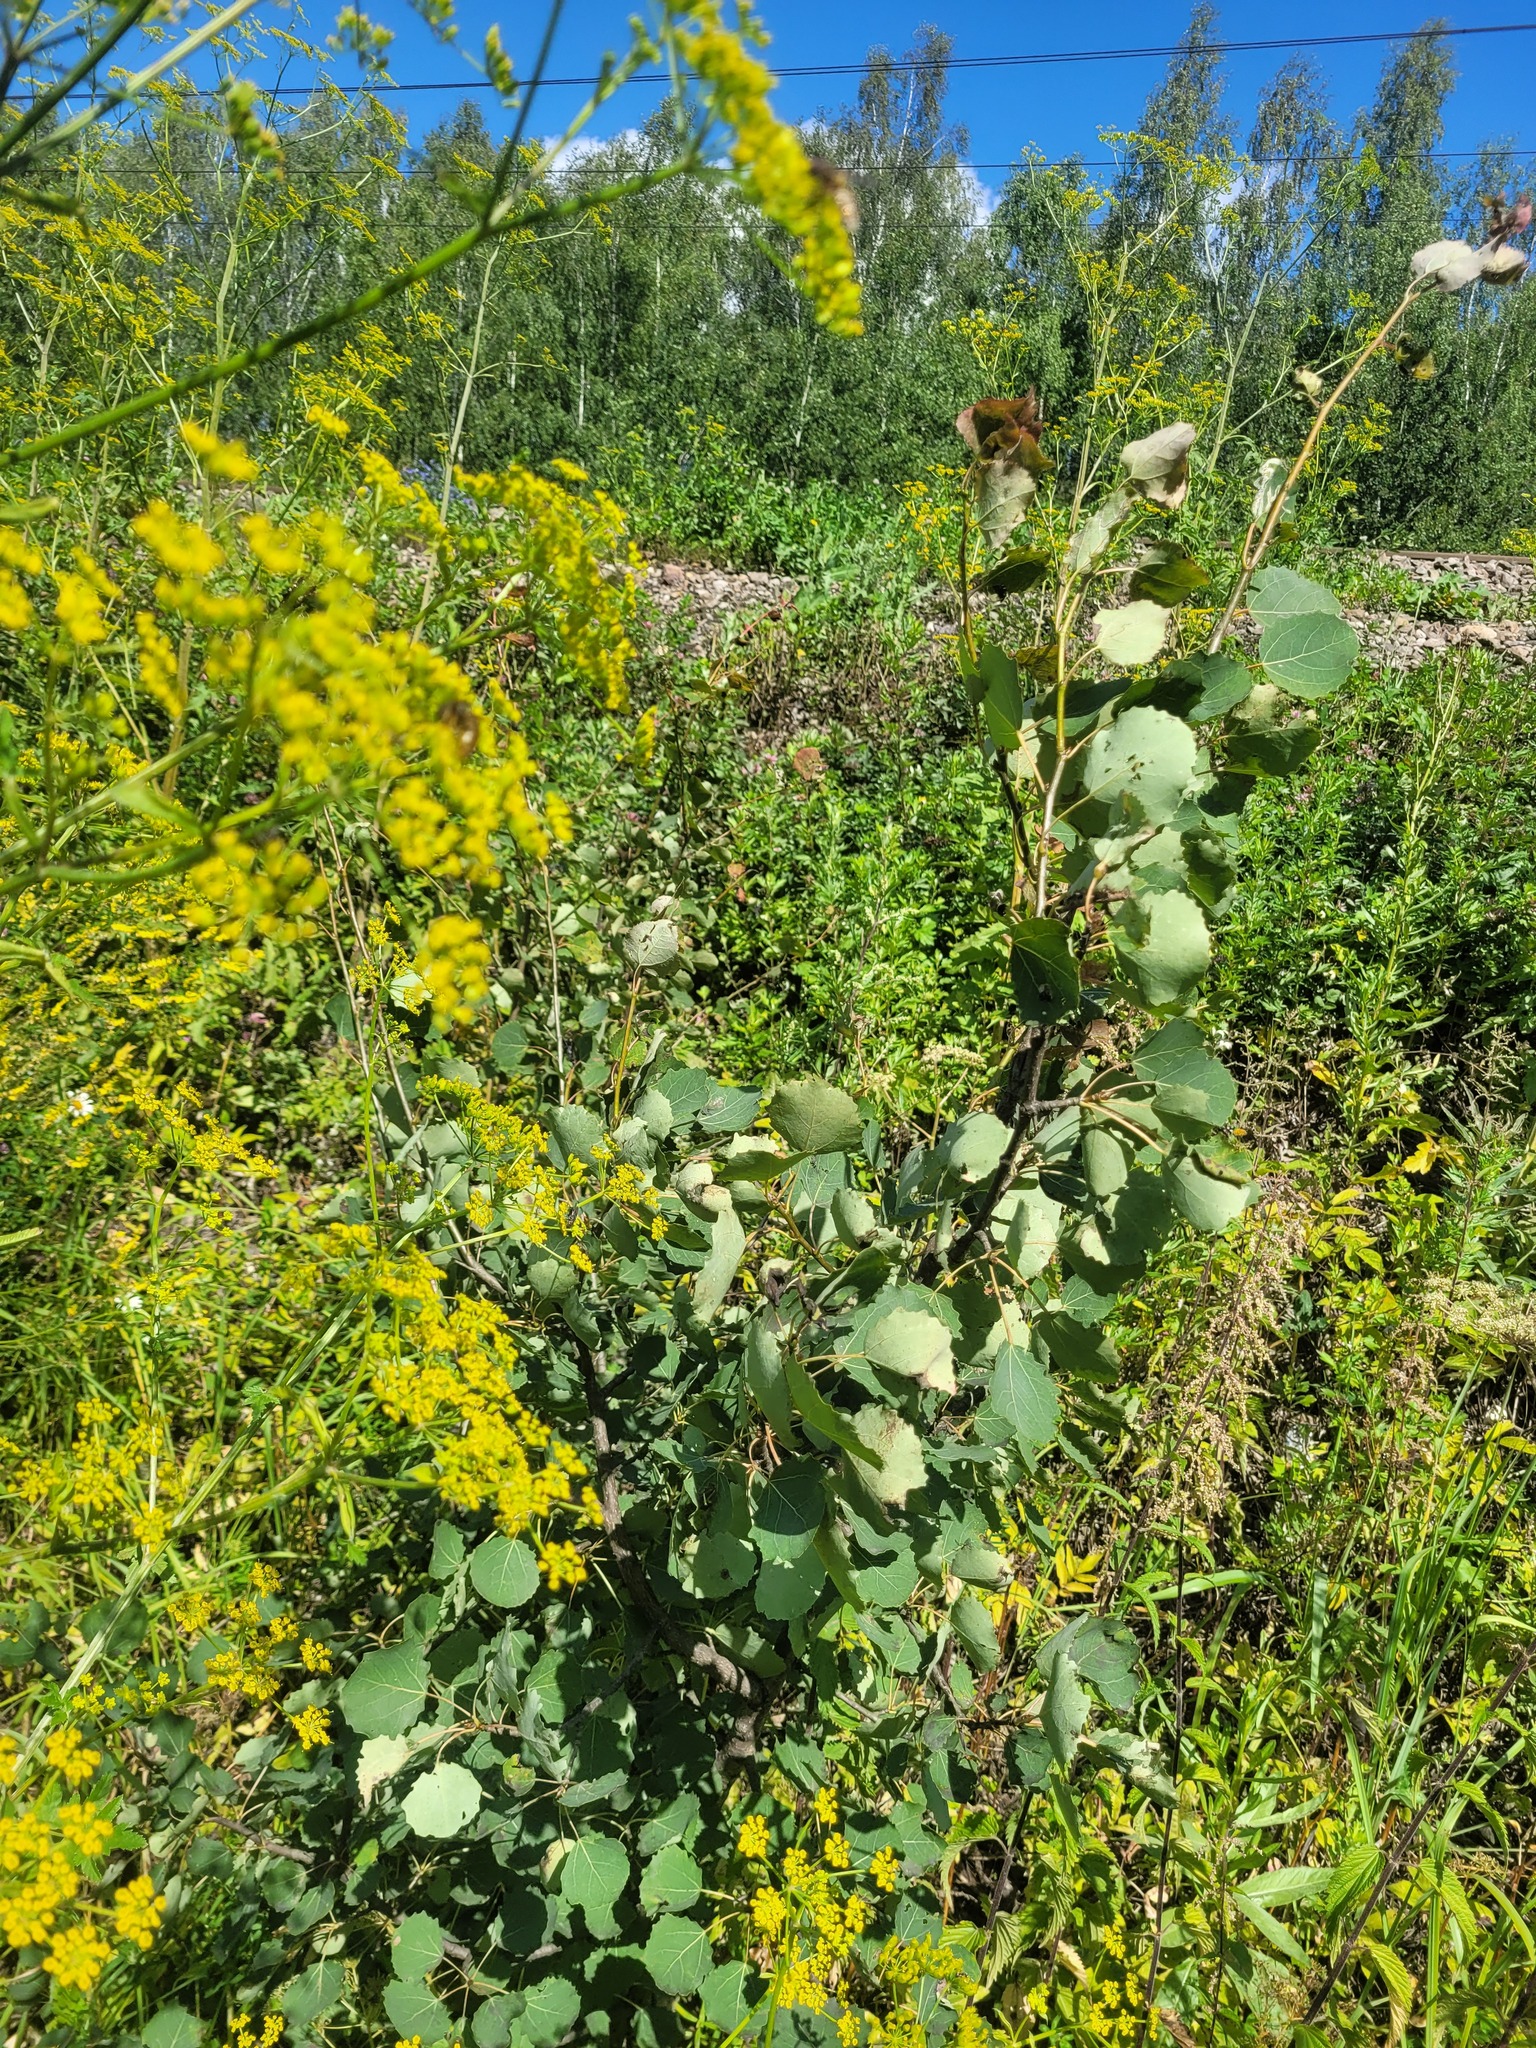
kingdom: Plantae
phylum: Tracheophyta
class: Magnoliopsida
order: Malpighiales
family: Salicaceae
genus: Populus
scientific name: Populus tremula
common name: European aspen
